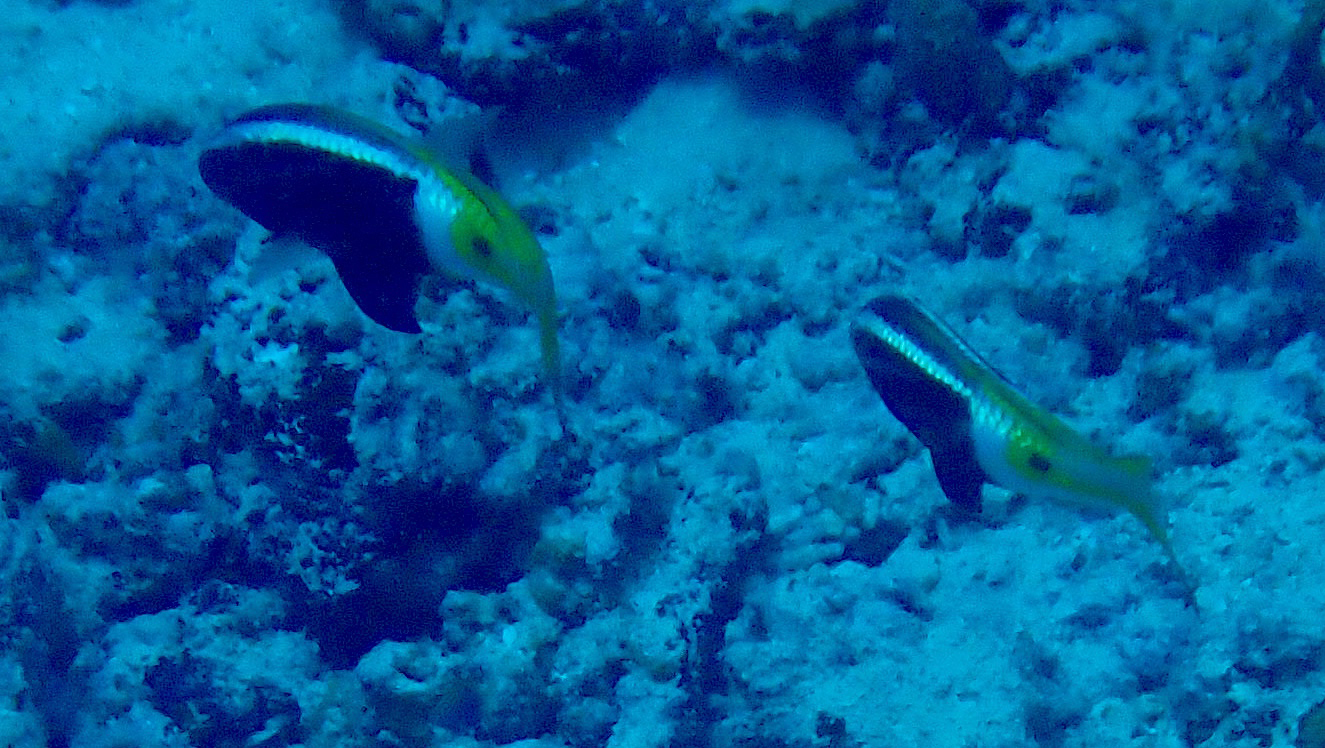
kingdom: Animalia
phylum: Chordata
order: Perciformes
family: Mullidae
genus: Parupeneus
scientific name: Parupeneus barberinoides
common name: Half-and-half goatfish
